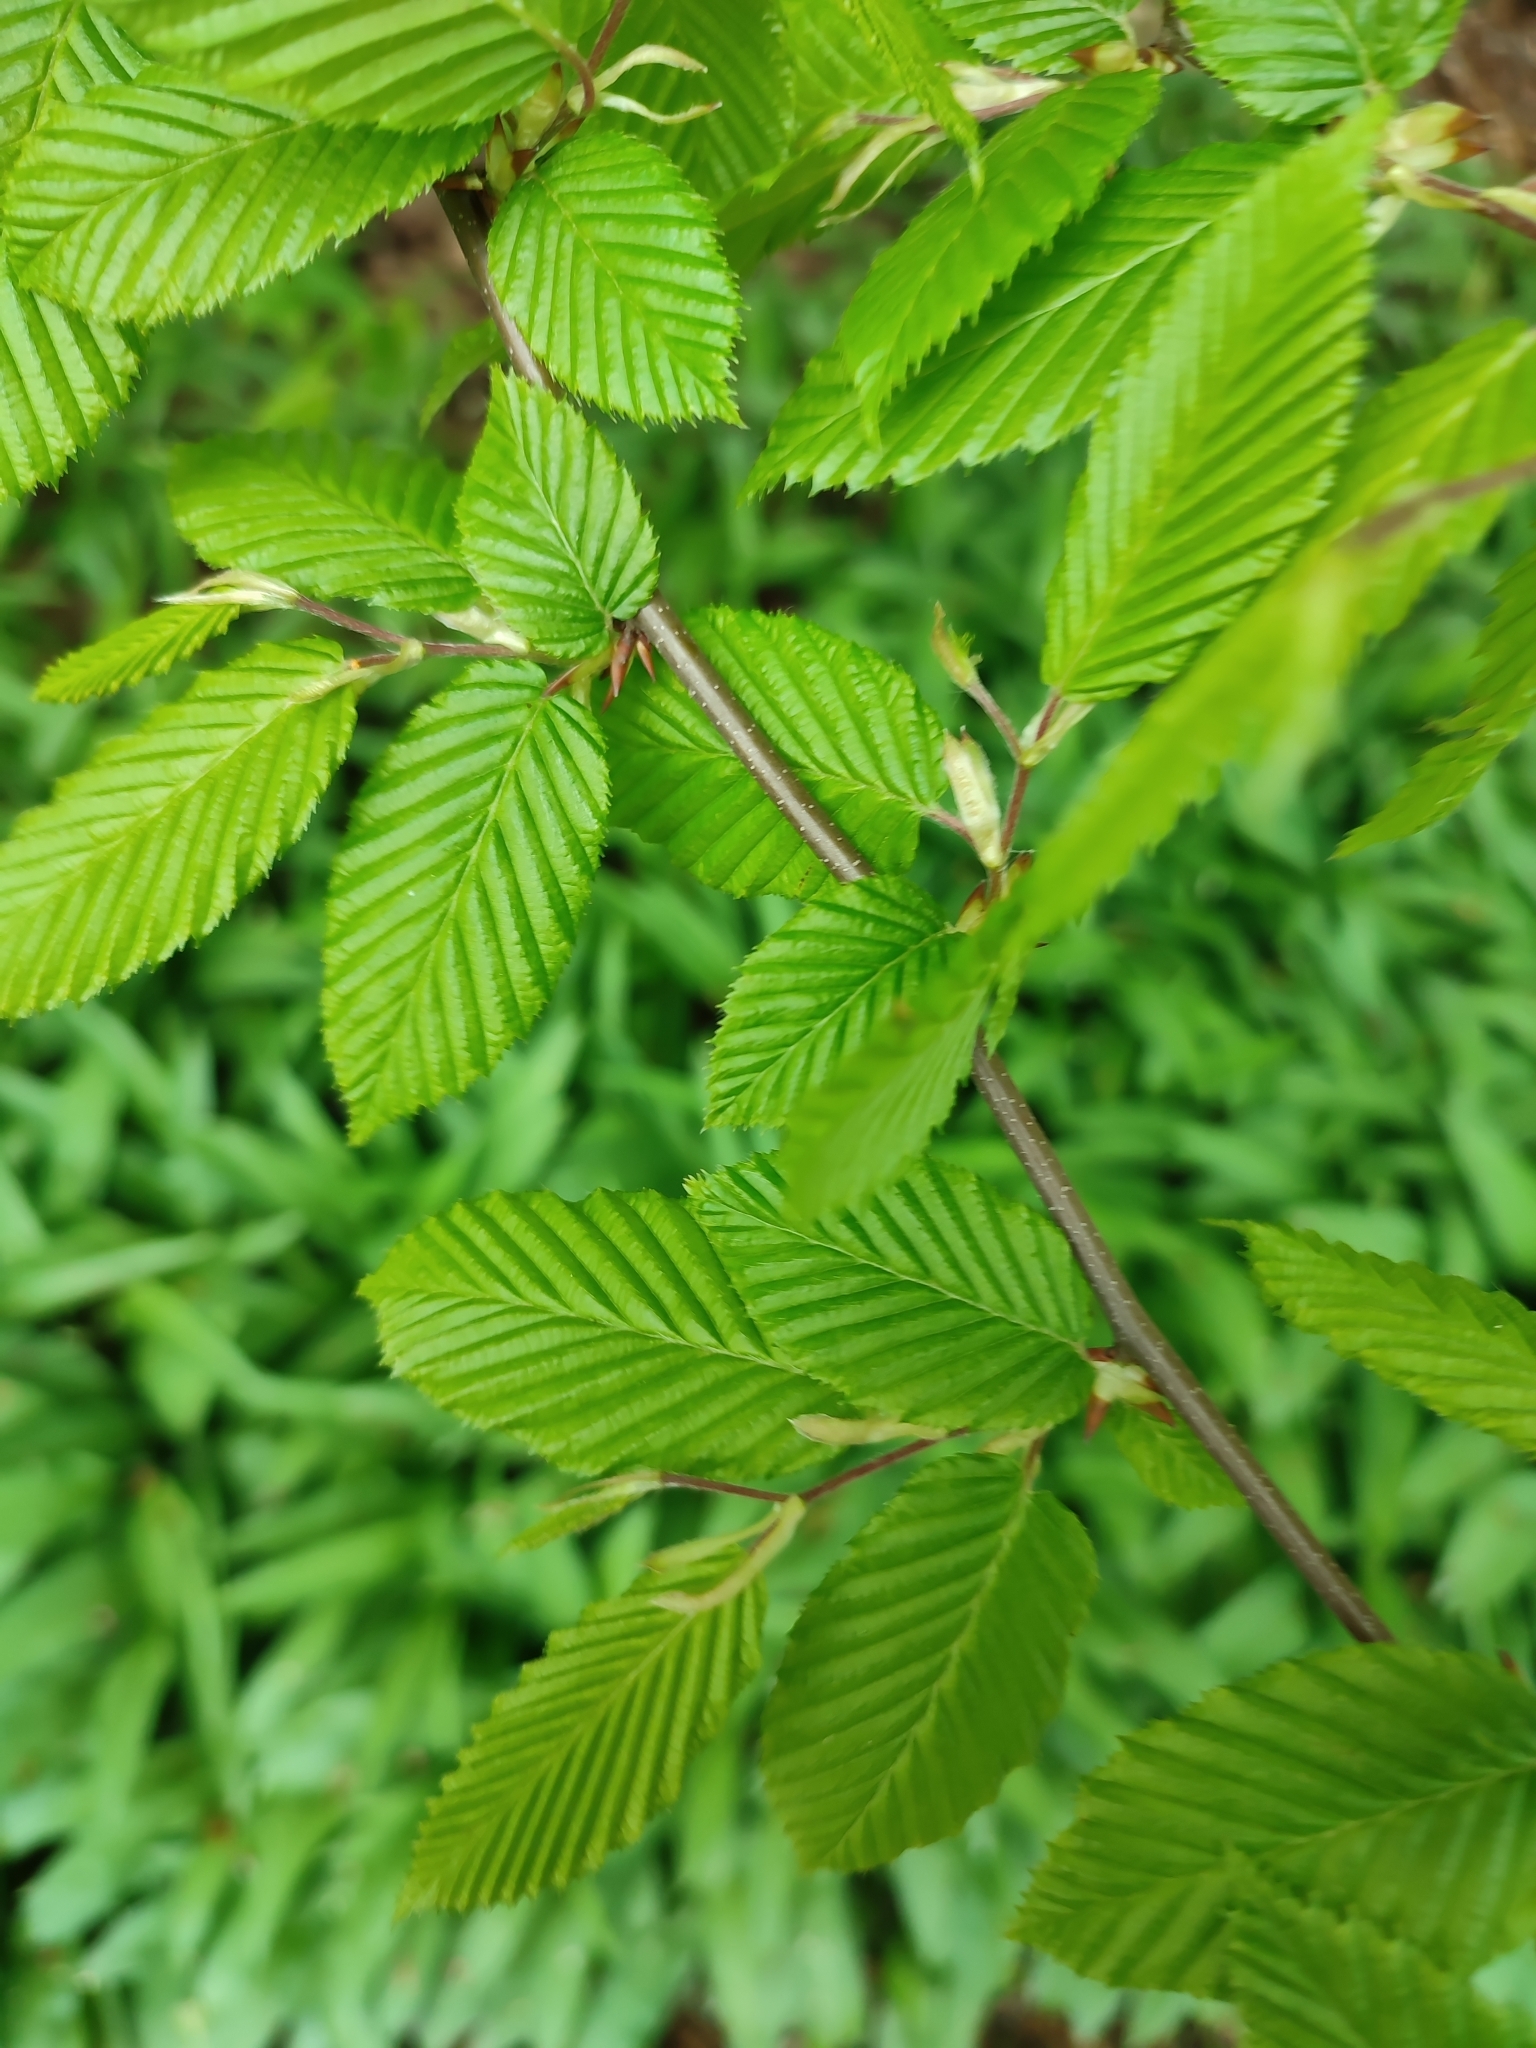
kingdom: Plantae
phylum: Tracheophyta
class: Magnoliopsida
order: Fagales
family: Betulaceae
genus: Carpinus
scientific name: Carpinus betulus
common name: Hornbeam
